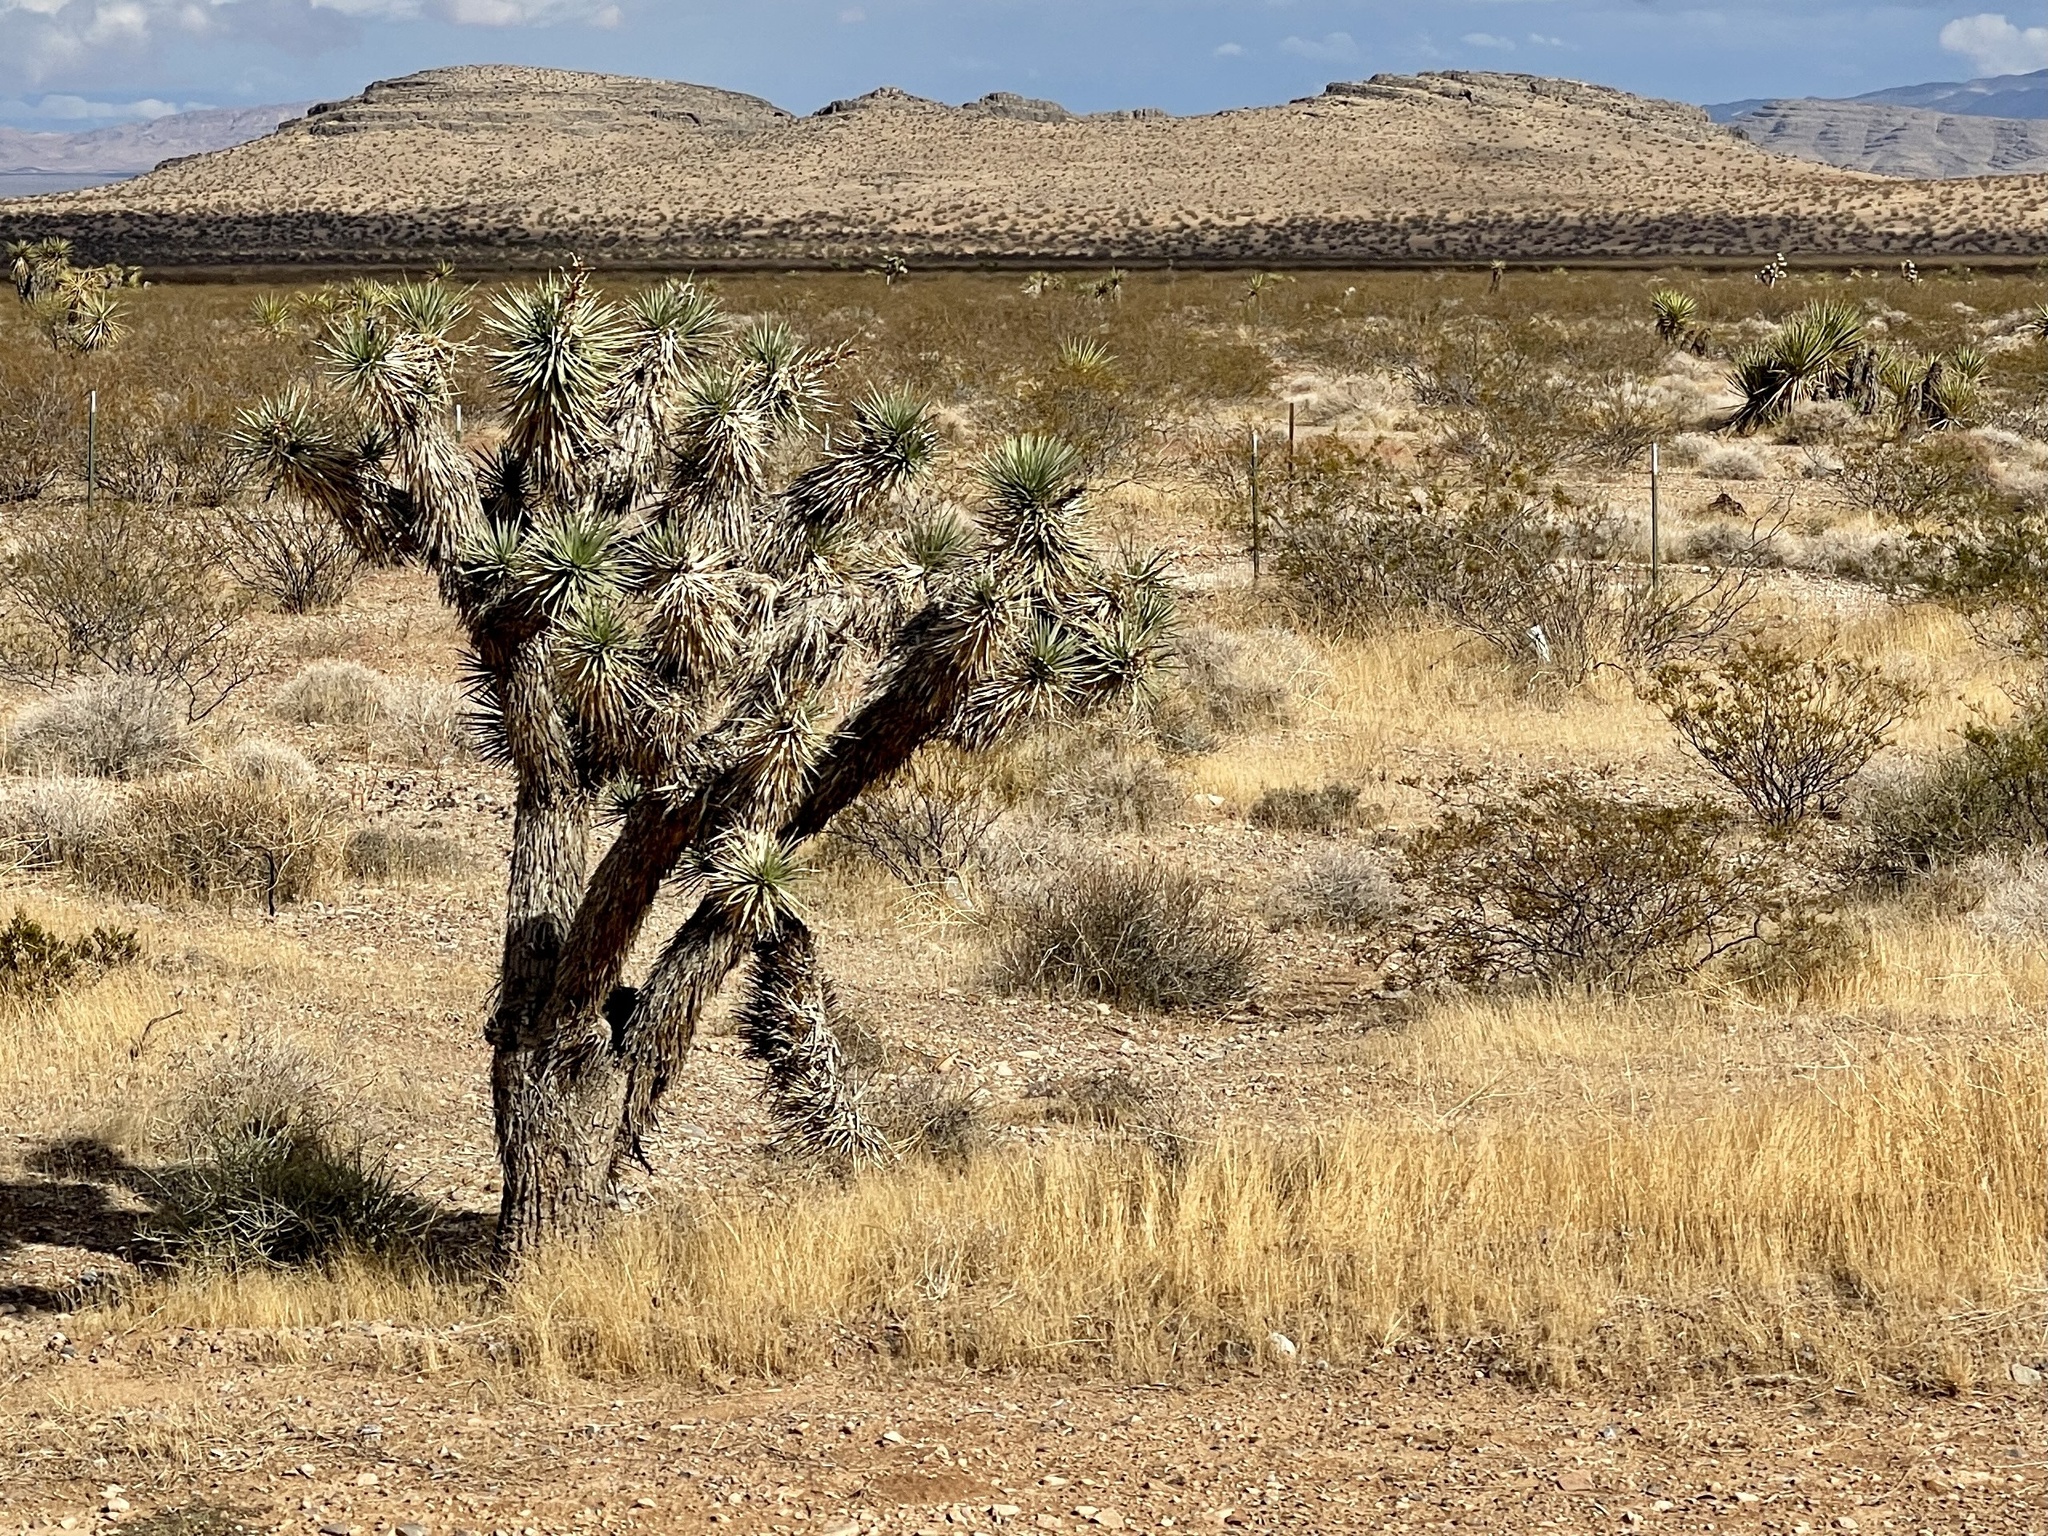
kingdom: Plantae
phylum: Tracheophyta
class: Liliopsida
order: Asparagales
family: Asparagaceae
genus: Yucca
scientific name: Yucca brevifolia
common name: Joshua tree
